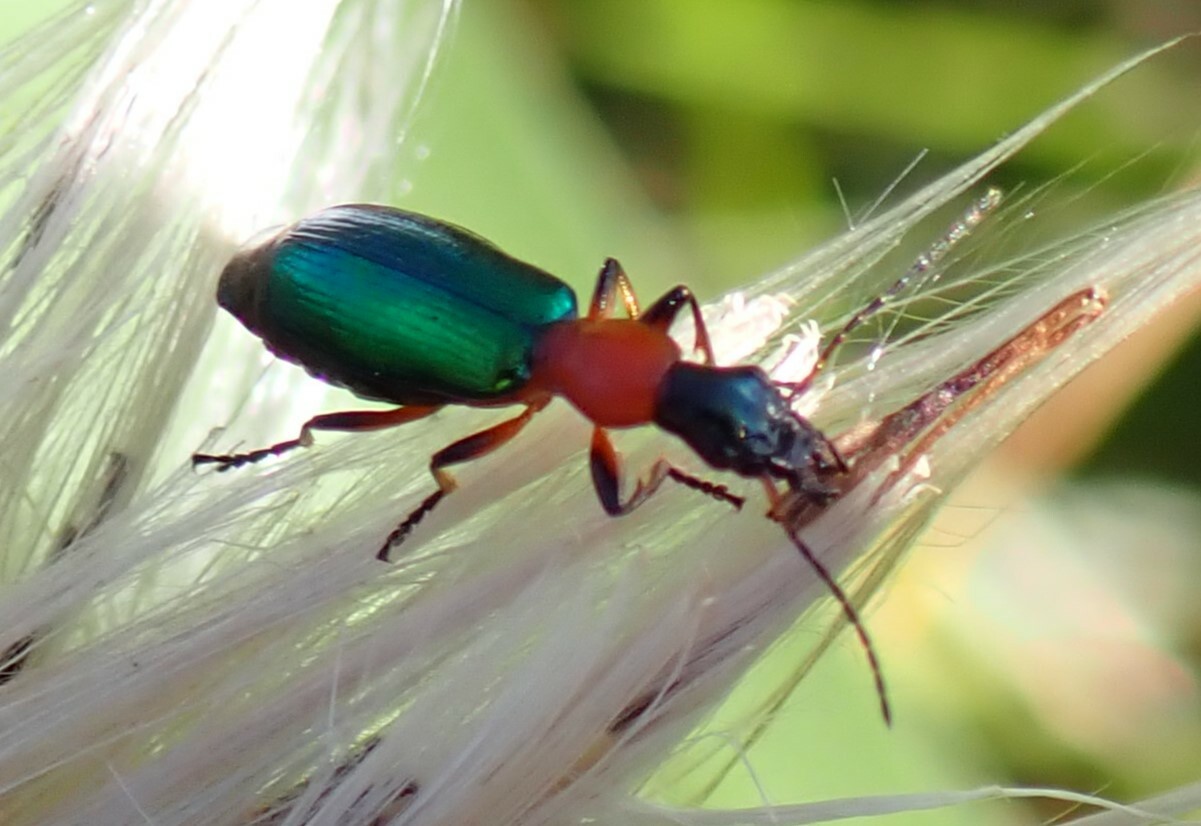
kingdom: Animalia
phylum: Arthropoda
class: Insecta
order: Coleoptera
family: Carabidae
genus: Calleida
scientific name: Calleida punctata
